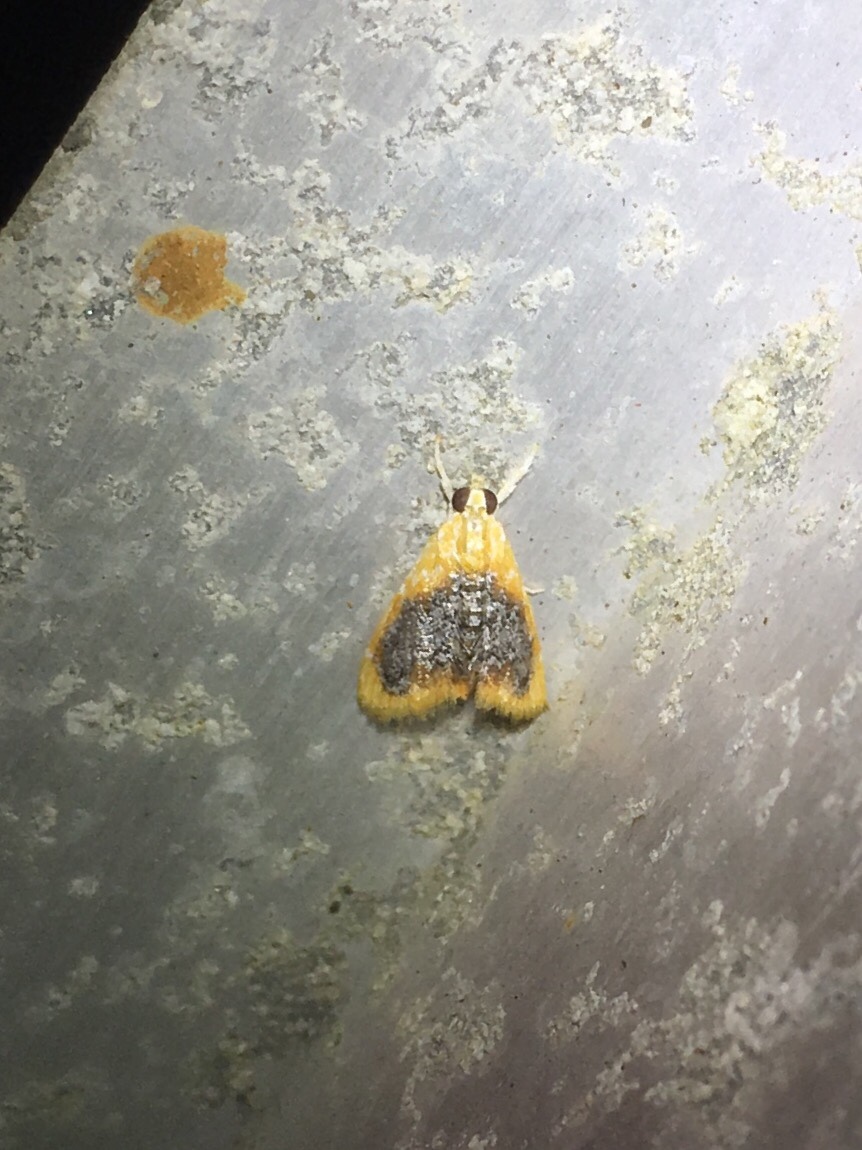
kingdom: Animalia
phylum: Arthropoda
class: Insecta
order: Lepidoptera
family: Crambidae
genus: Glaphyria
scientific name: Glaphyria fulminalis
